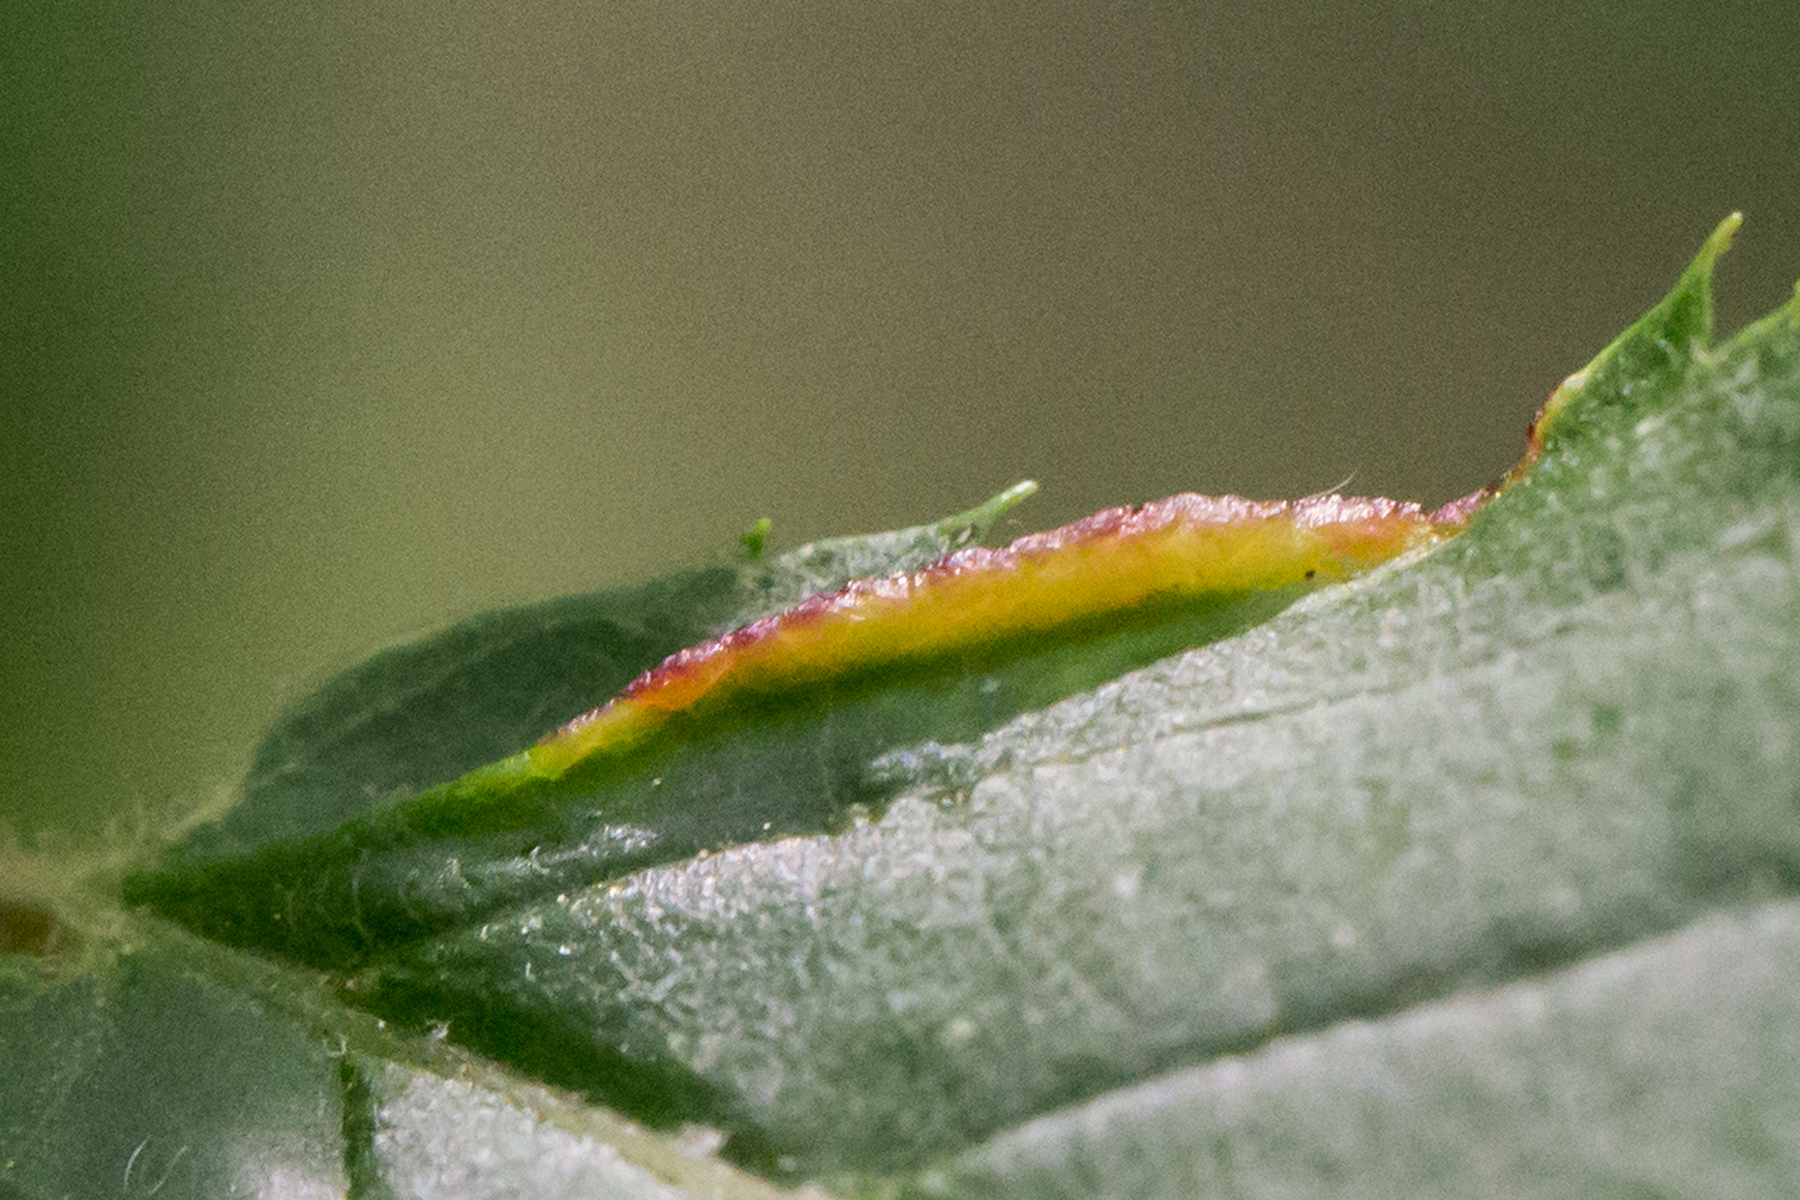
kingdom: Animalia
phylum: Arthropoda
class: Insecta
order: Diptera
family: Cecidomyiidae
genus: Dasineura
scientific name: Dasineura pudibunda
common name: Hornbeam leaf gall midge
